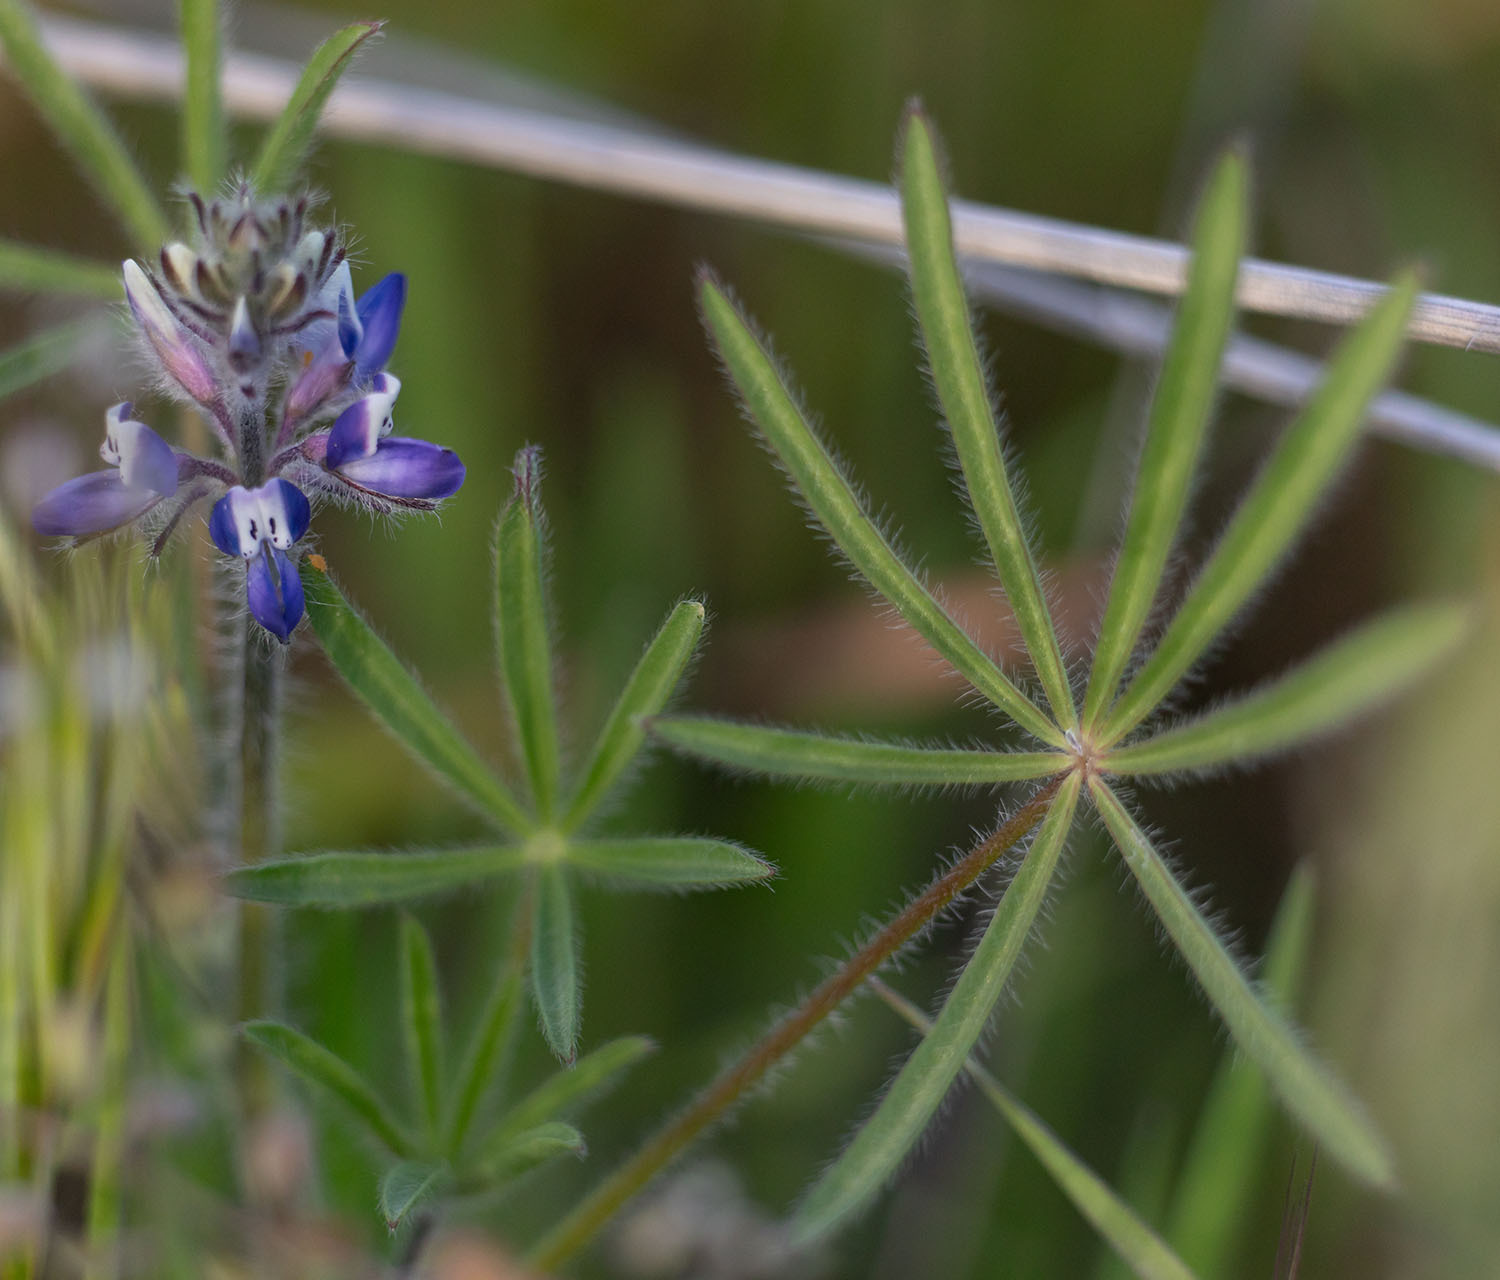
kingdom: Plantae
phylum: Tracheophyta
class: Magnoliopsida
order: Fabales
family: Fabaceae
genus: Lupinus
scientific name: Lupinus bicolor
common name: Miniature lupine
